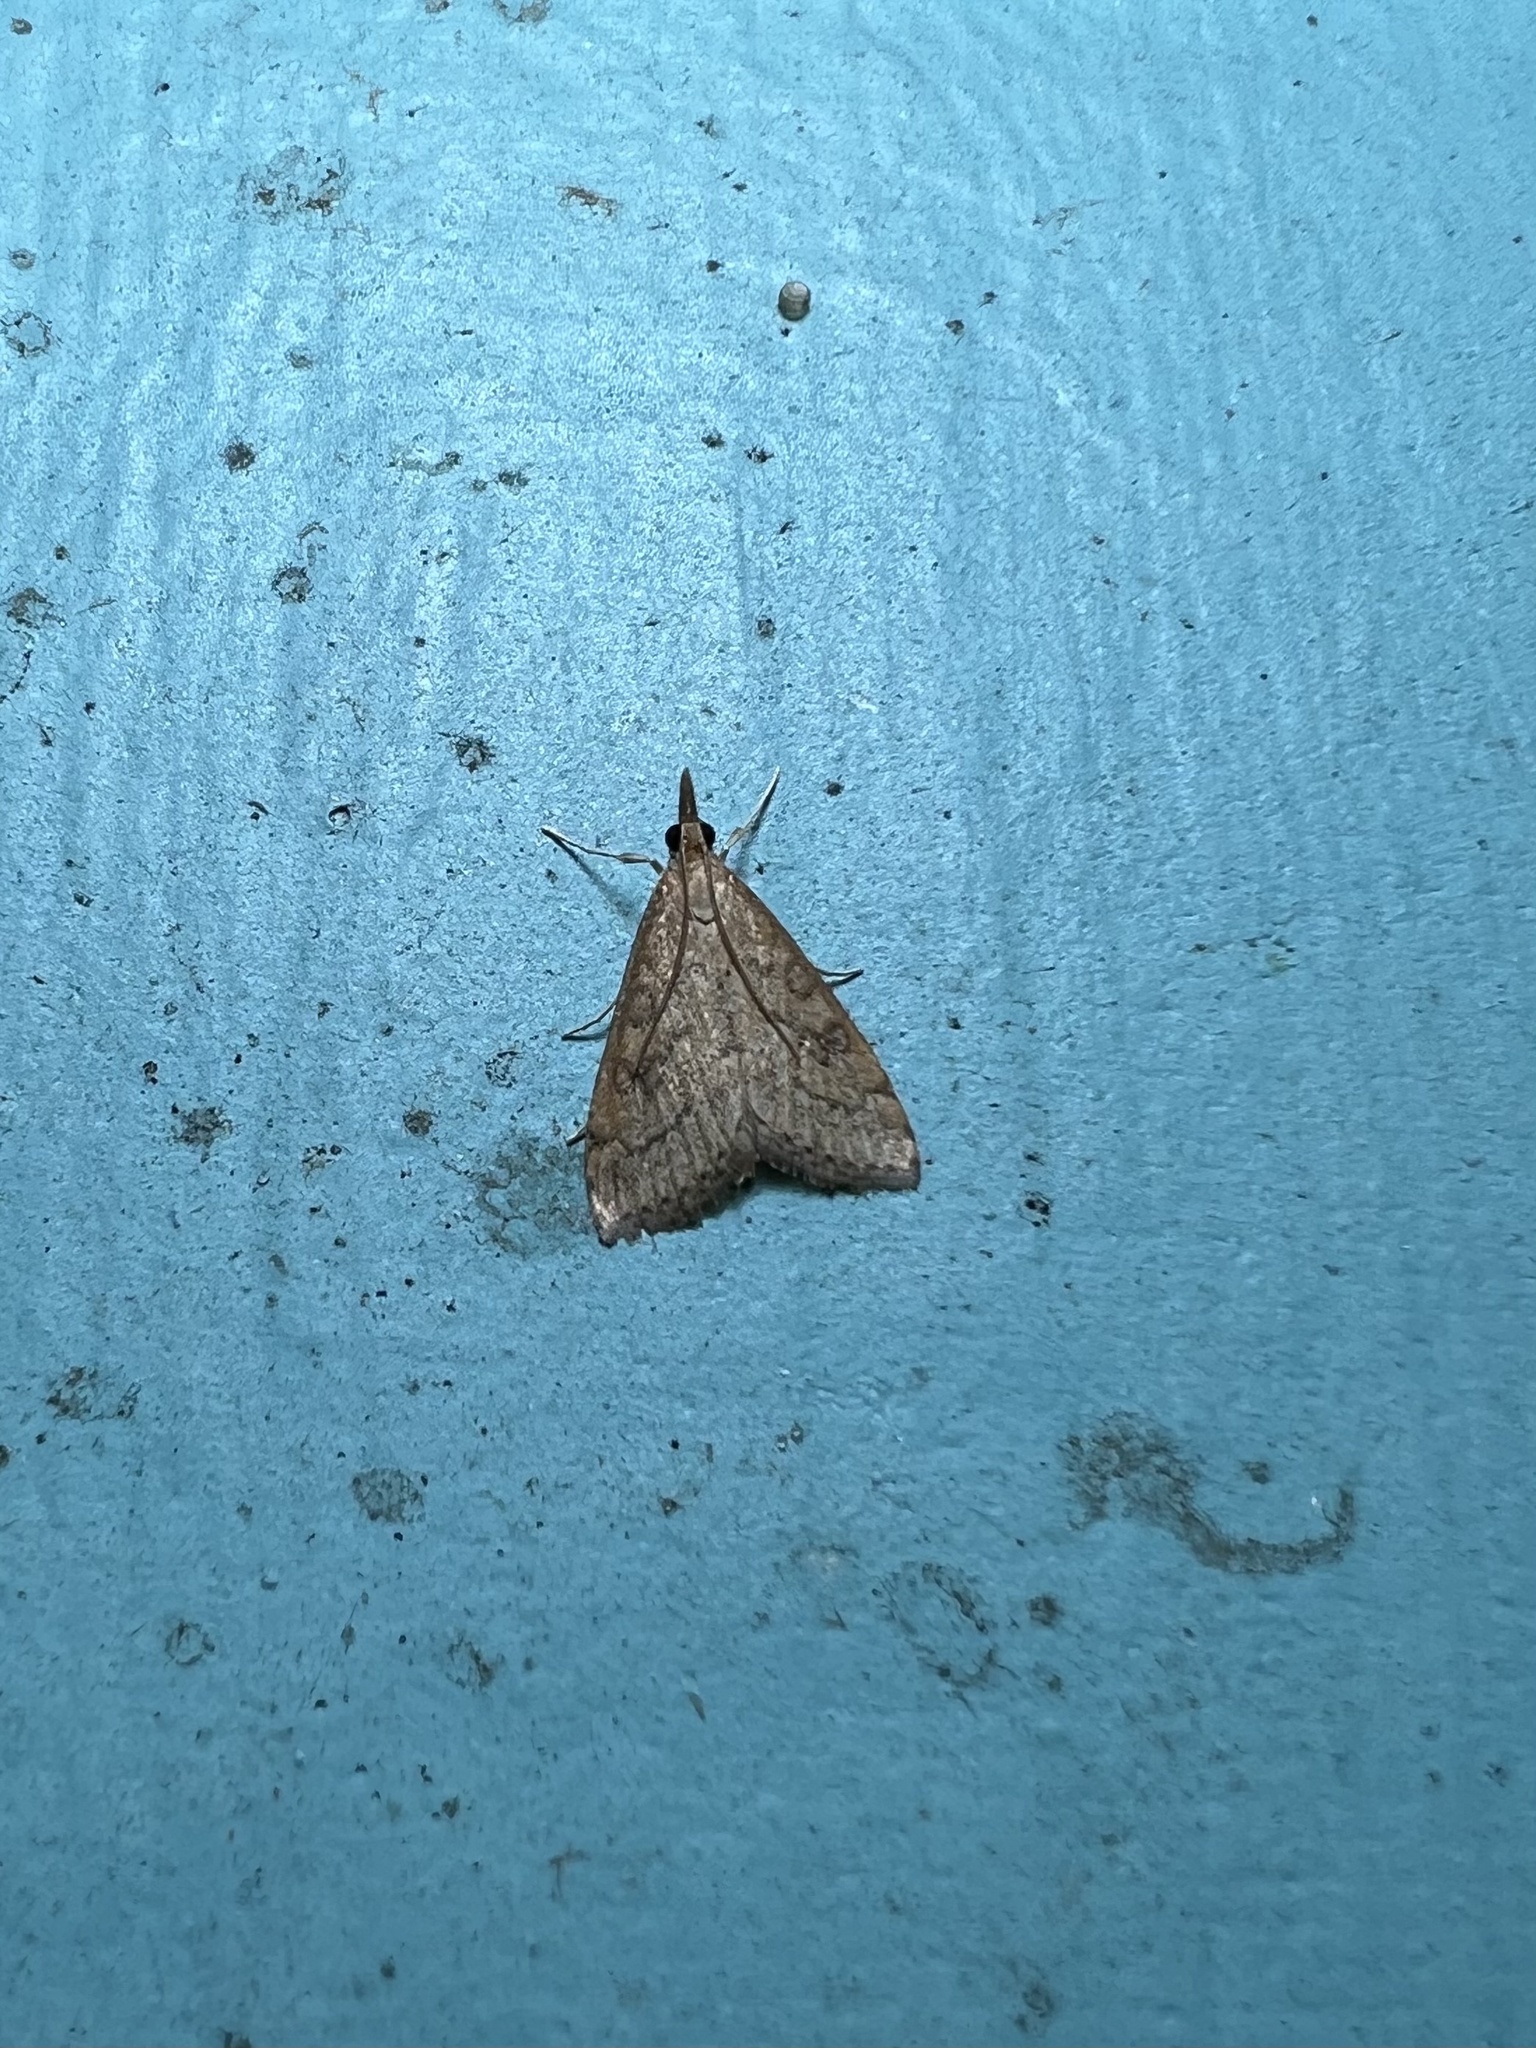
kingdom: Animalia
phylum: Arthropoda
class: Insecta
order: Lepidoptera
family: Crambidae
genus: Udea
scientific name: Udea rubigalis
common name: Celery leaftier moth
